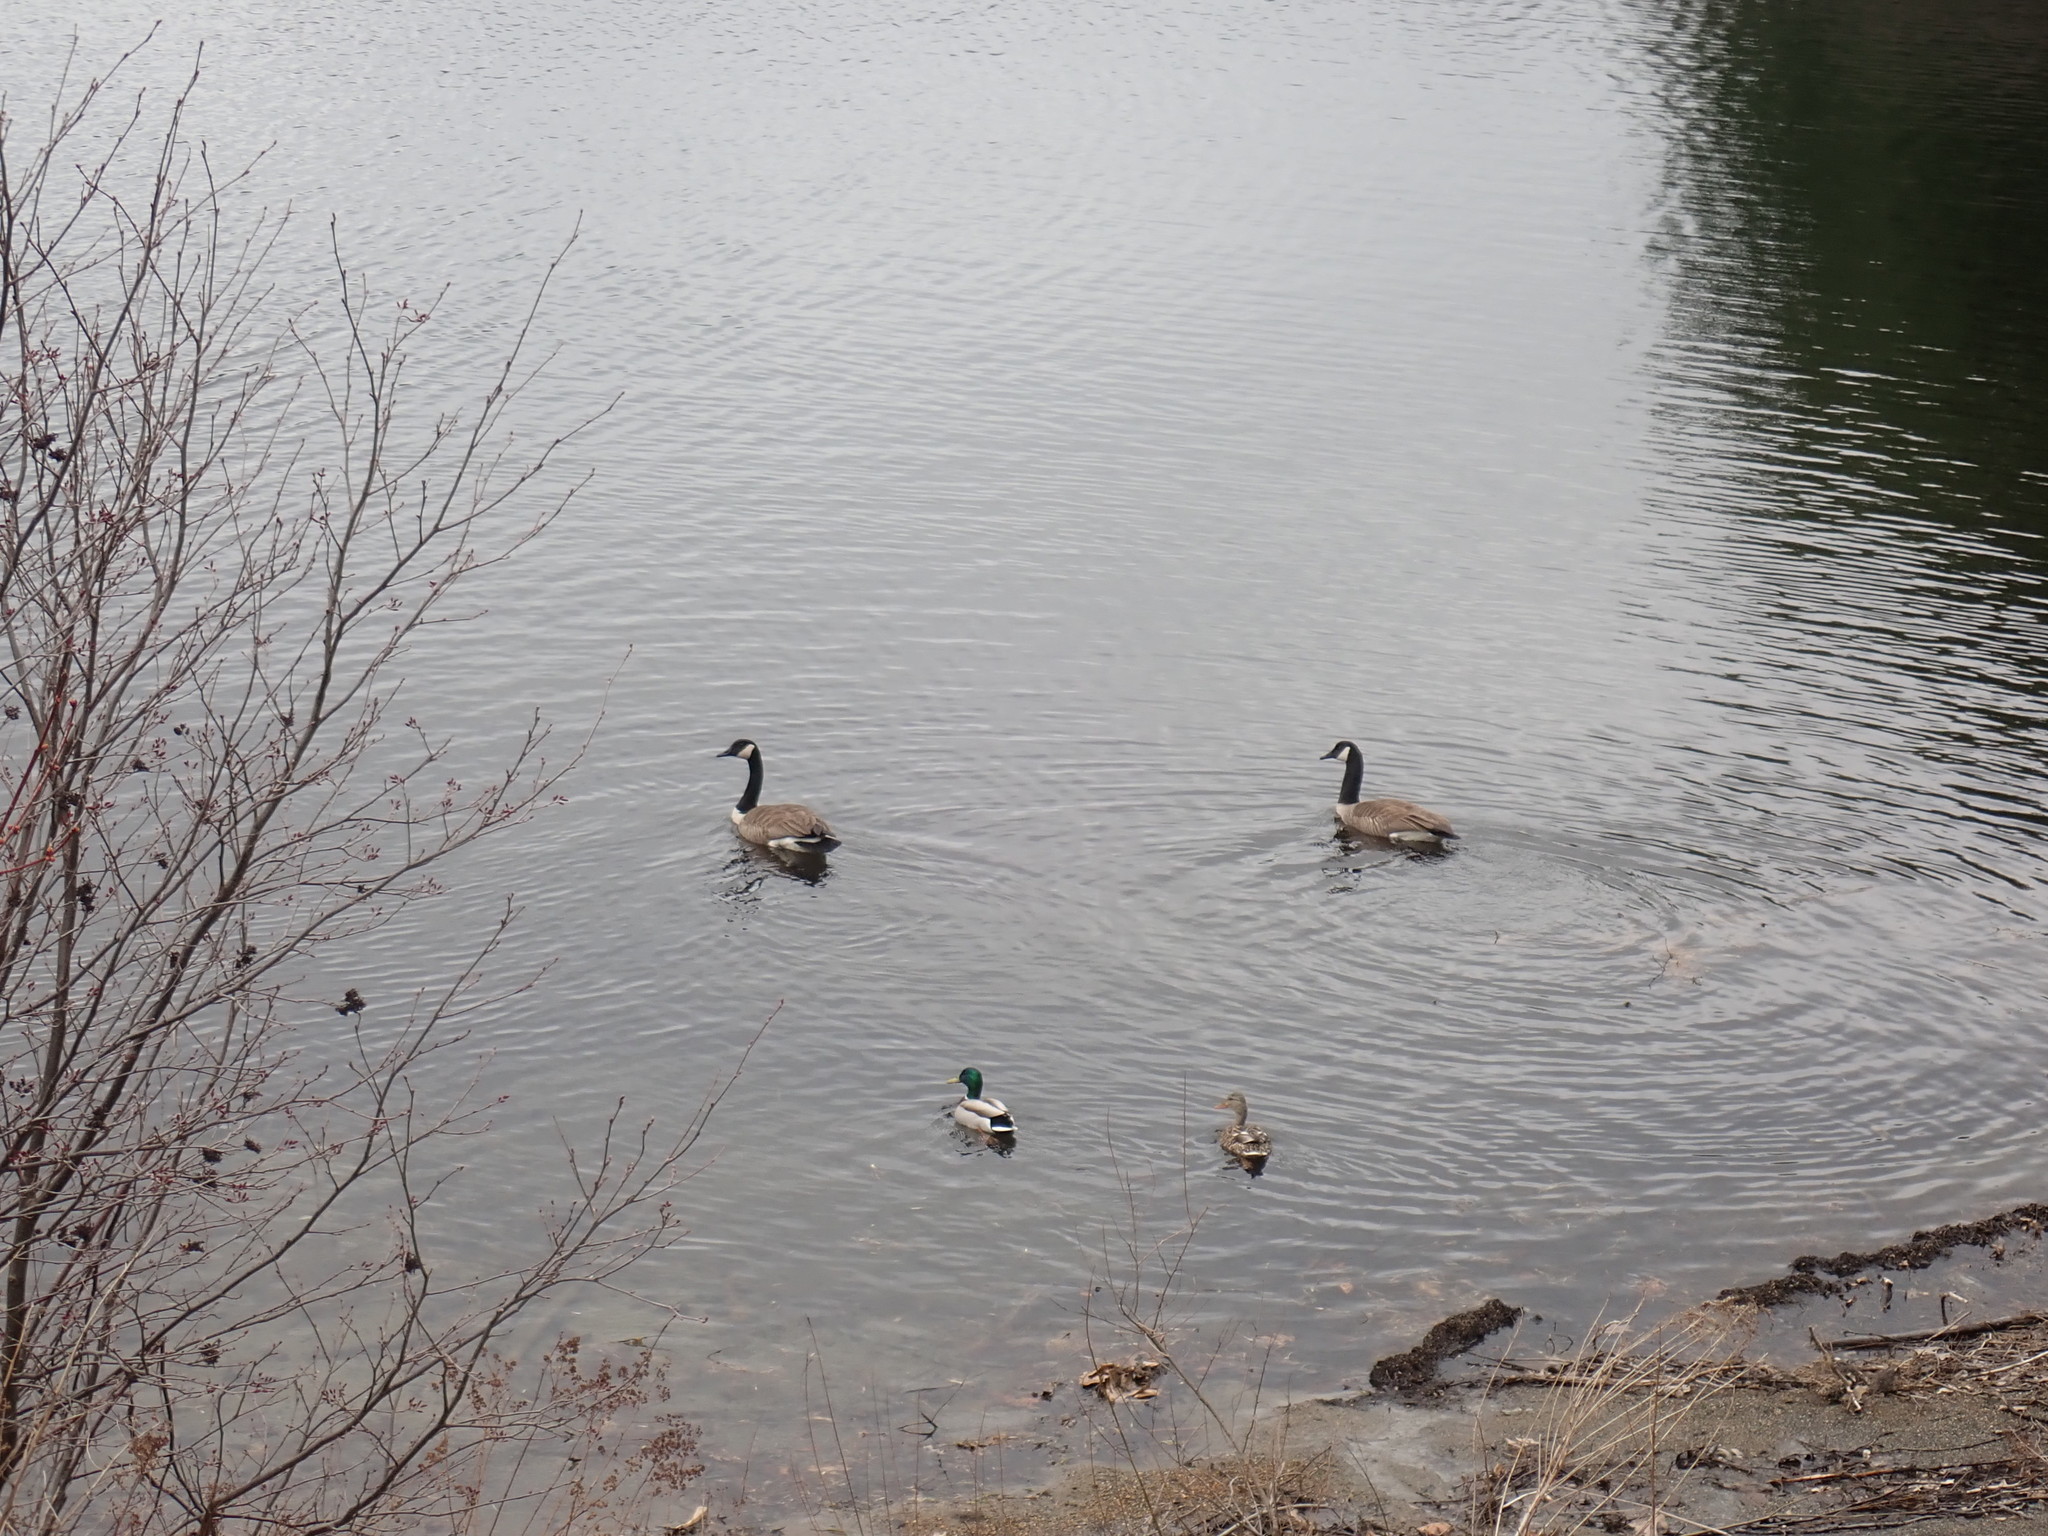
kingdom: Animalia
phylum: Chordata
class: Aves
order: Anseriformes
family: Anatidae
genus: Branta
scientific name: Branta canadensis
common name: Canada goose
